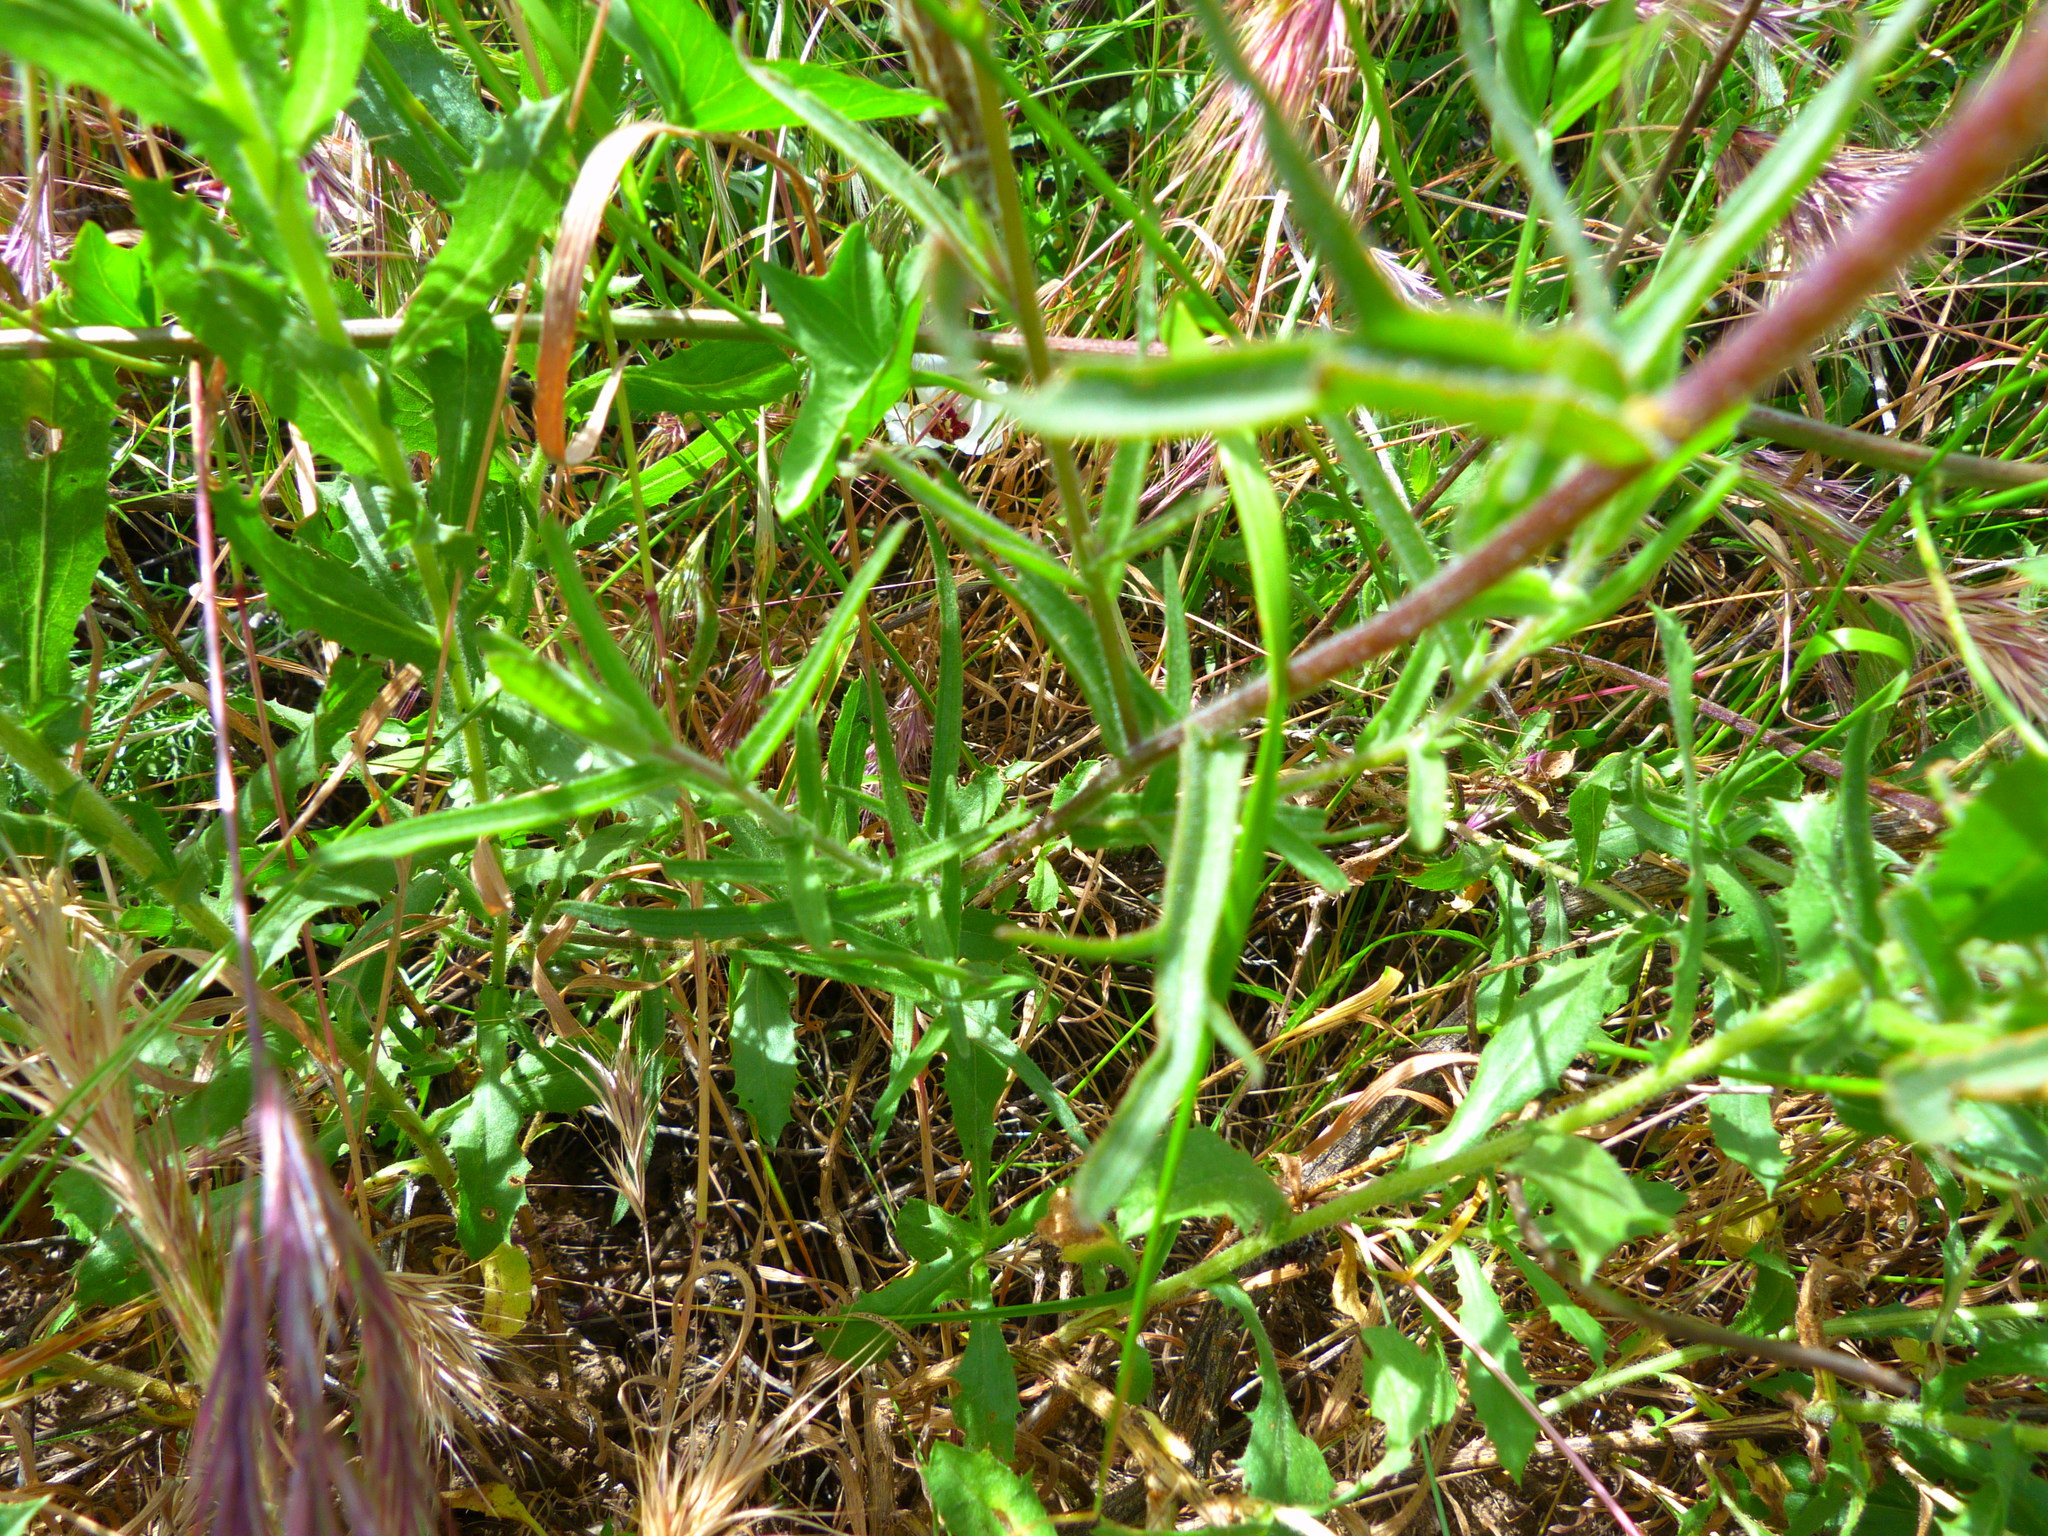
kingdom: Plantae
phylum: Tracheophyta
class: Magnoliopsida
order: Lamiales
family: Orobanchaceae
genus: Castilleja
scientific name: Castilleja affinis
